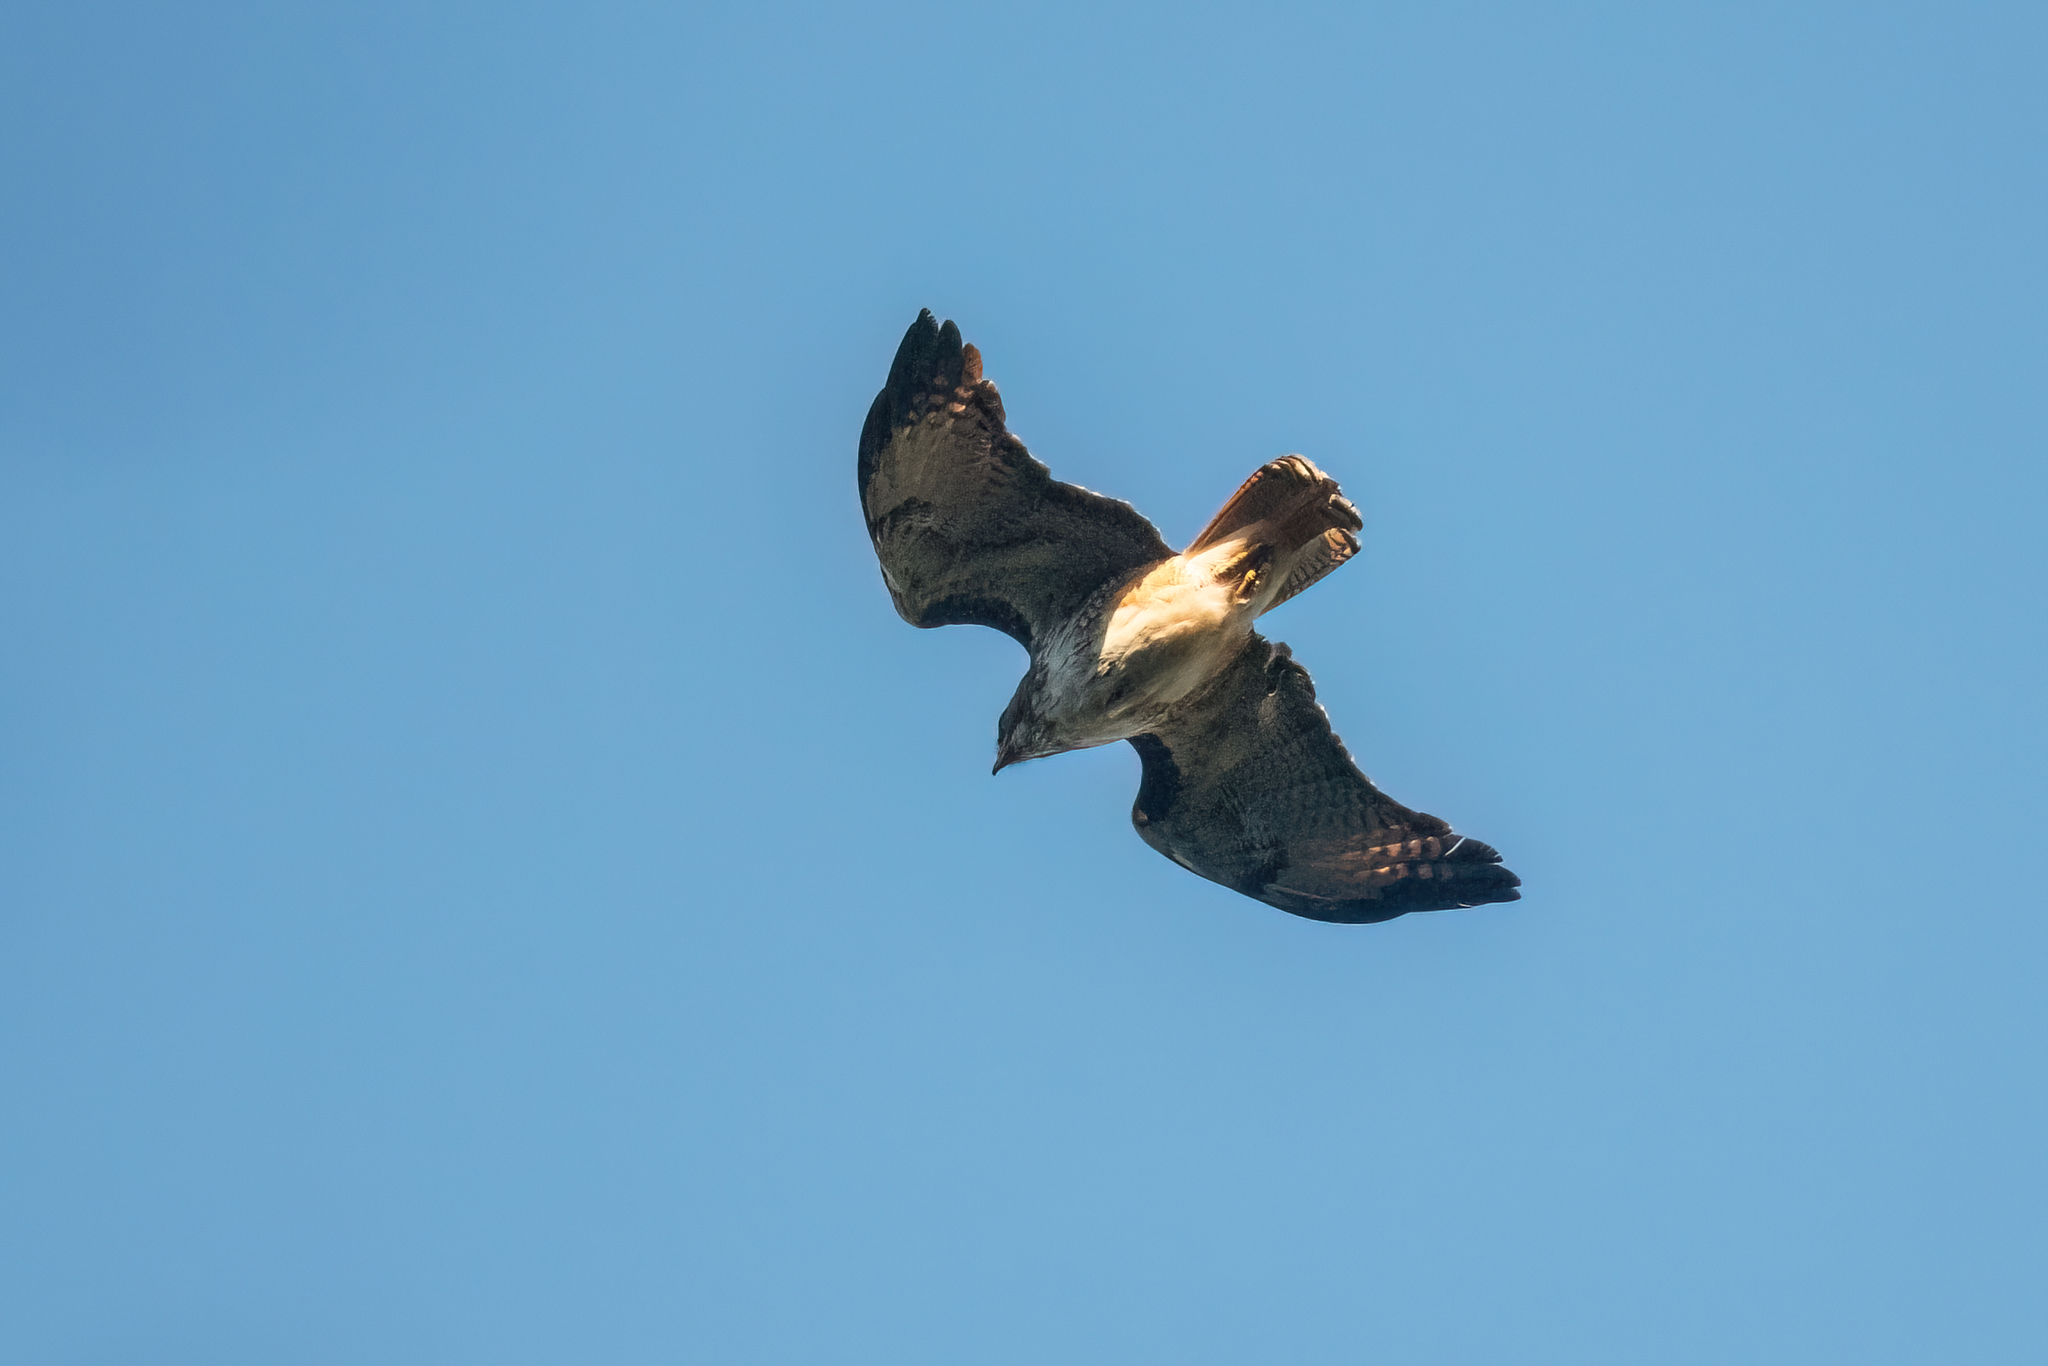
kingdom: Animalia
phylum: Chordata
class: Aves
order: Accipitriformes
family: Accipitridae
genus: Buteo
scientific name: Buteo jamaicensis
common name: Red-tailed hawk
